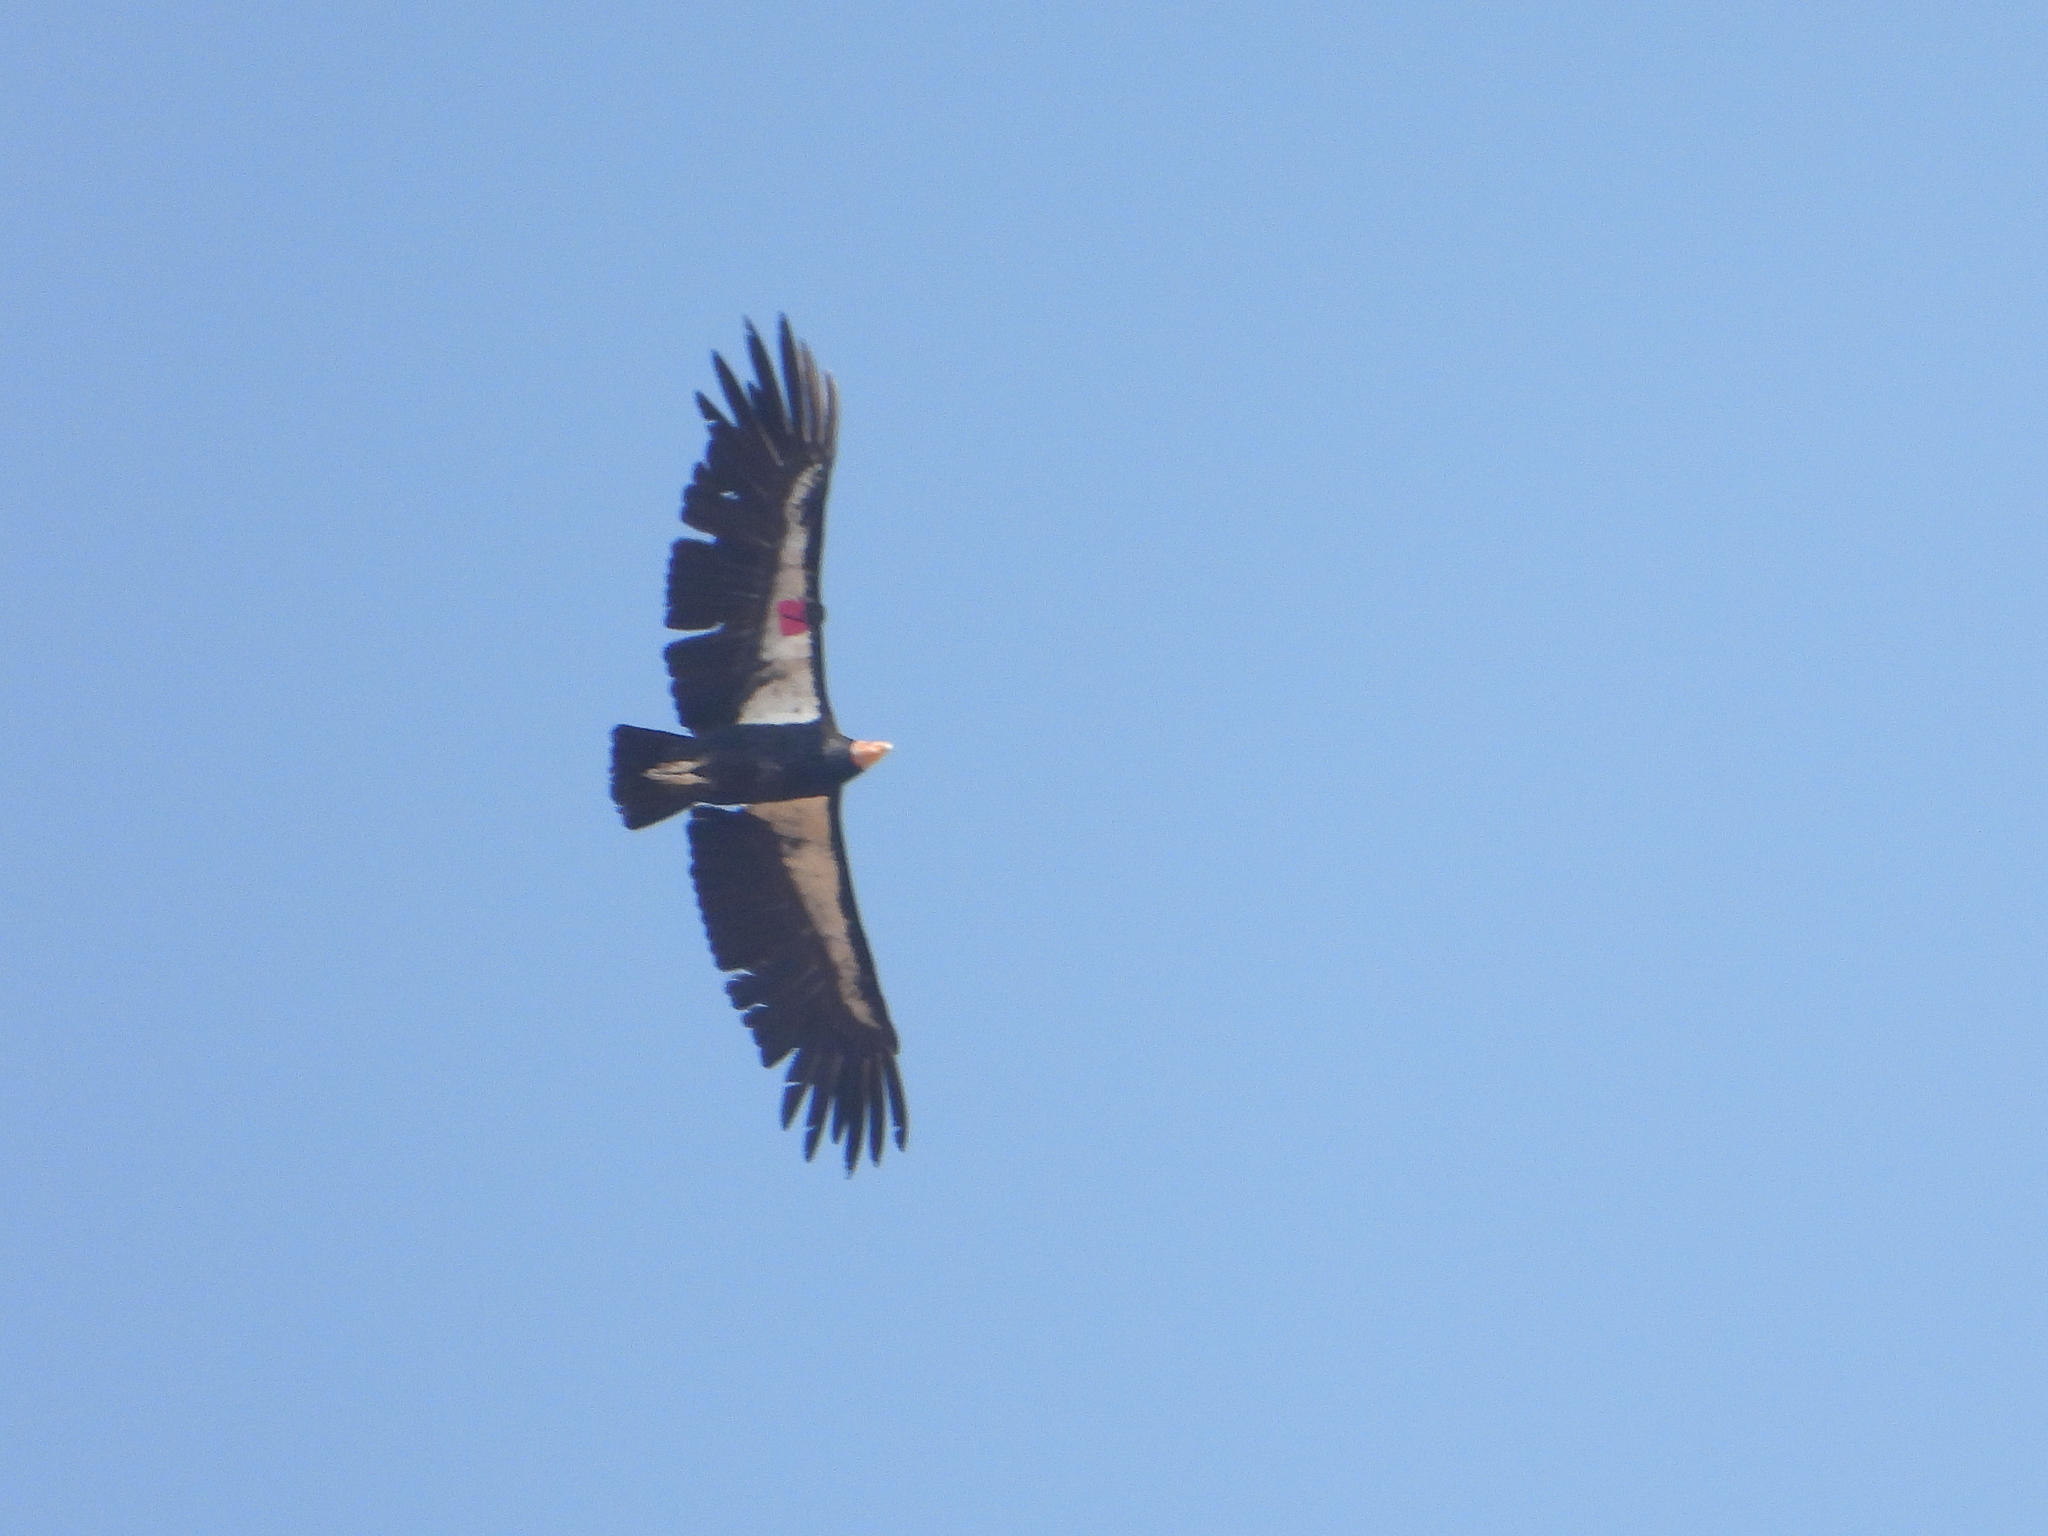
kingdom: Animalia
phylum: Chordata
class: Aves
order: Accipitriformes
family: Cathartidae
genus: Gymnogyps
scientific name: Gymnogyps californianus
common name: California condor
